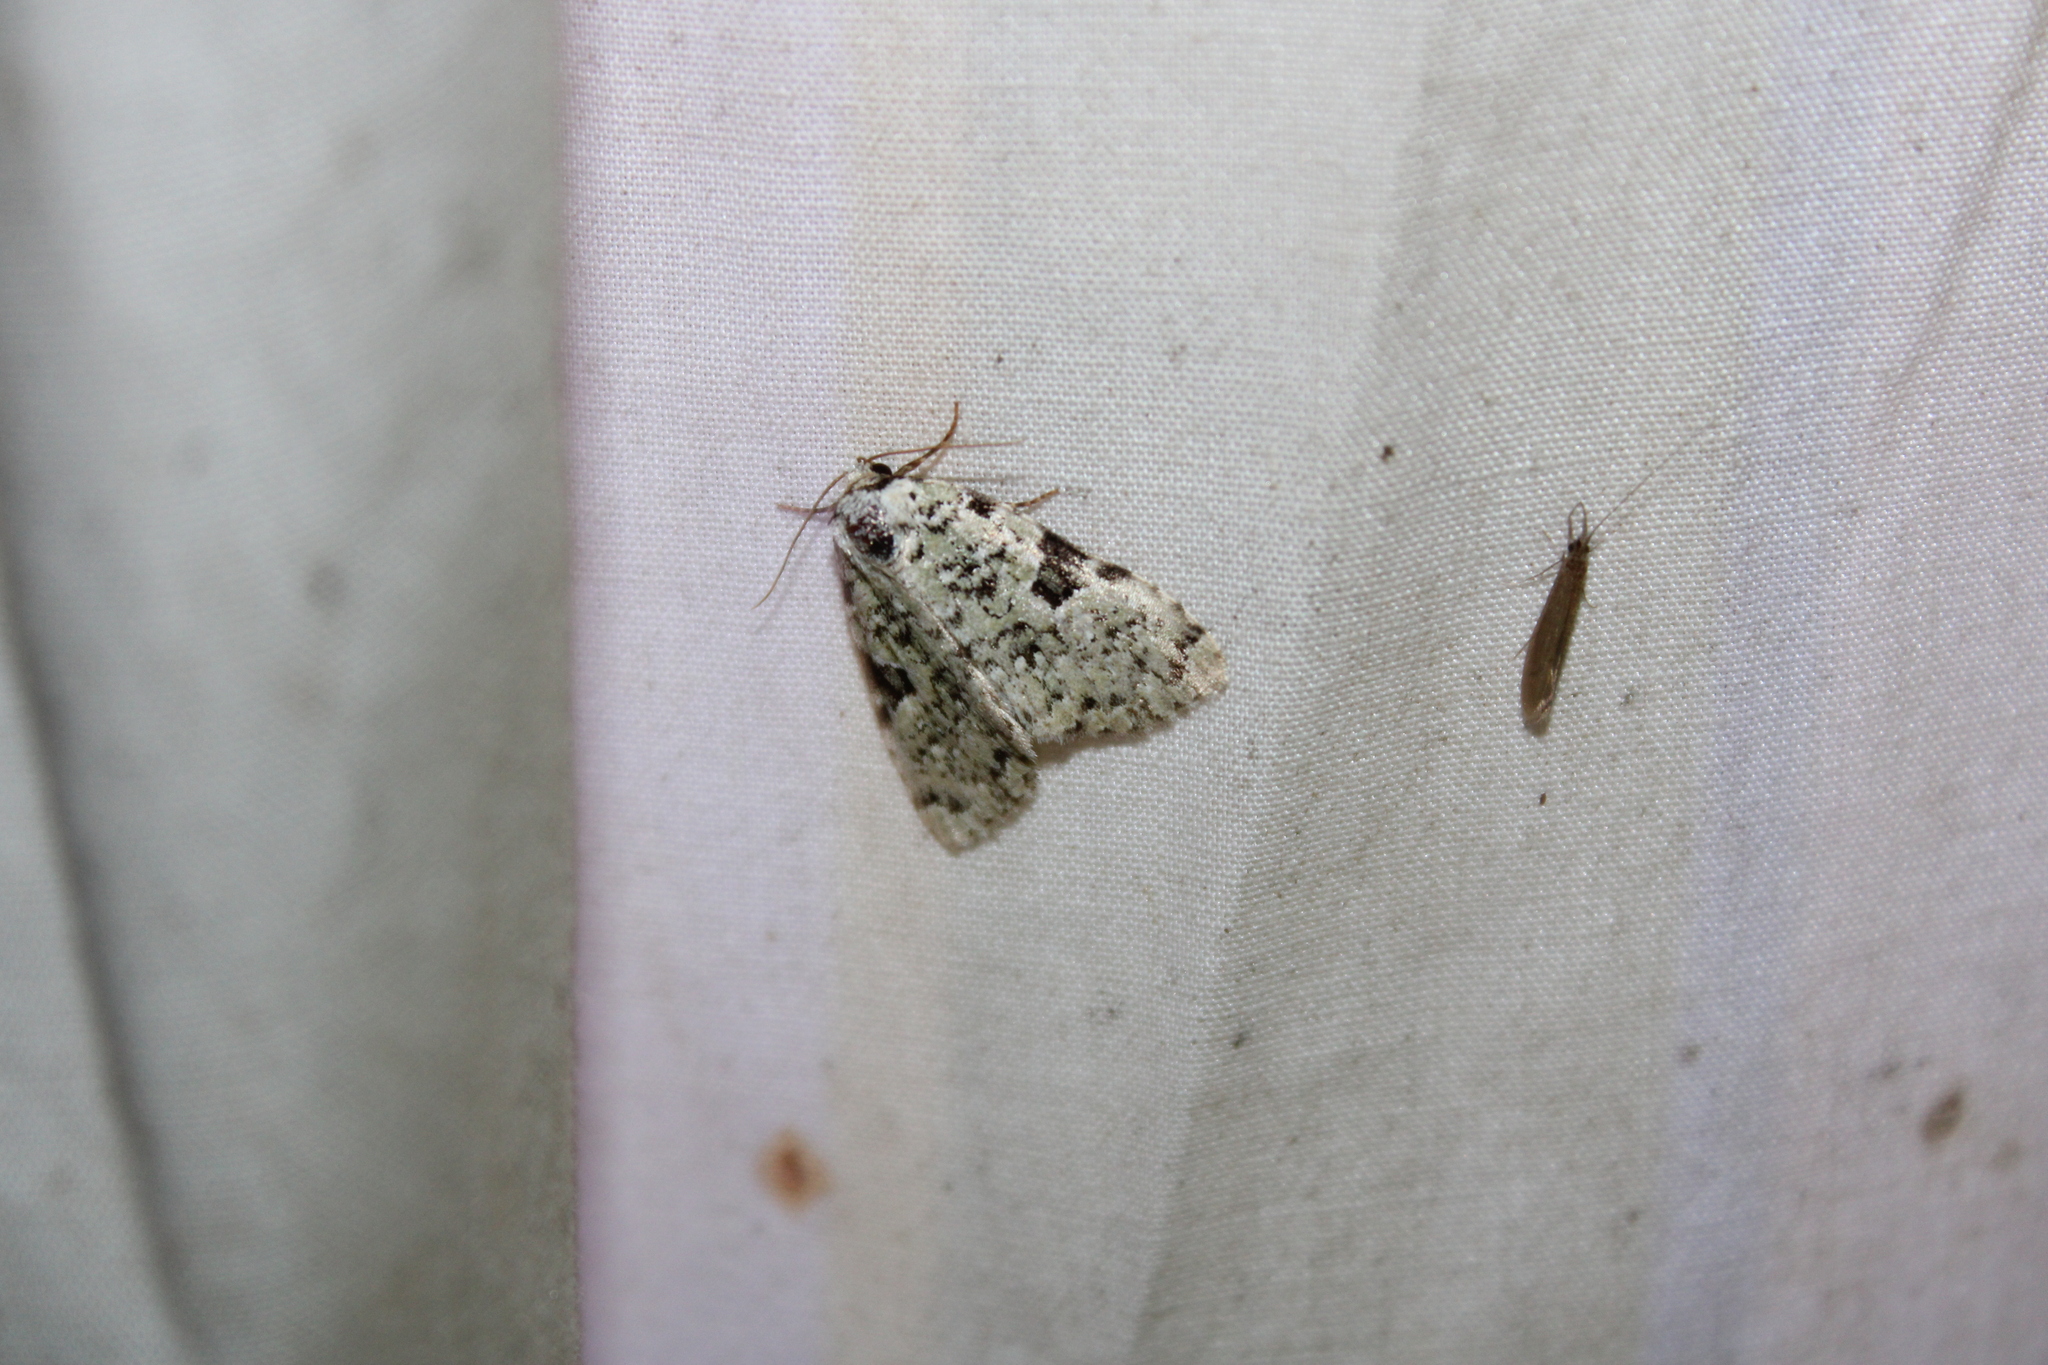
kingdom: Animalia
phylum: Arthropoda
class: Insecta
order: Lepidoptera
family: Noctuidae
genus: Leuconycta
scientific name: Leuconycta diphteroides
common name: Green leuconycta moth
